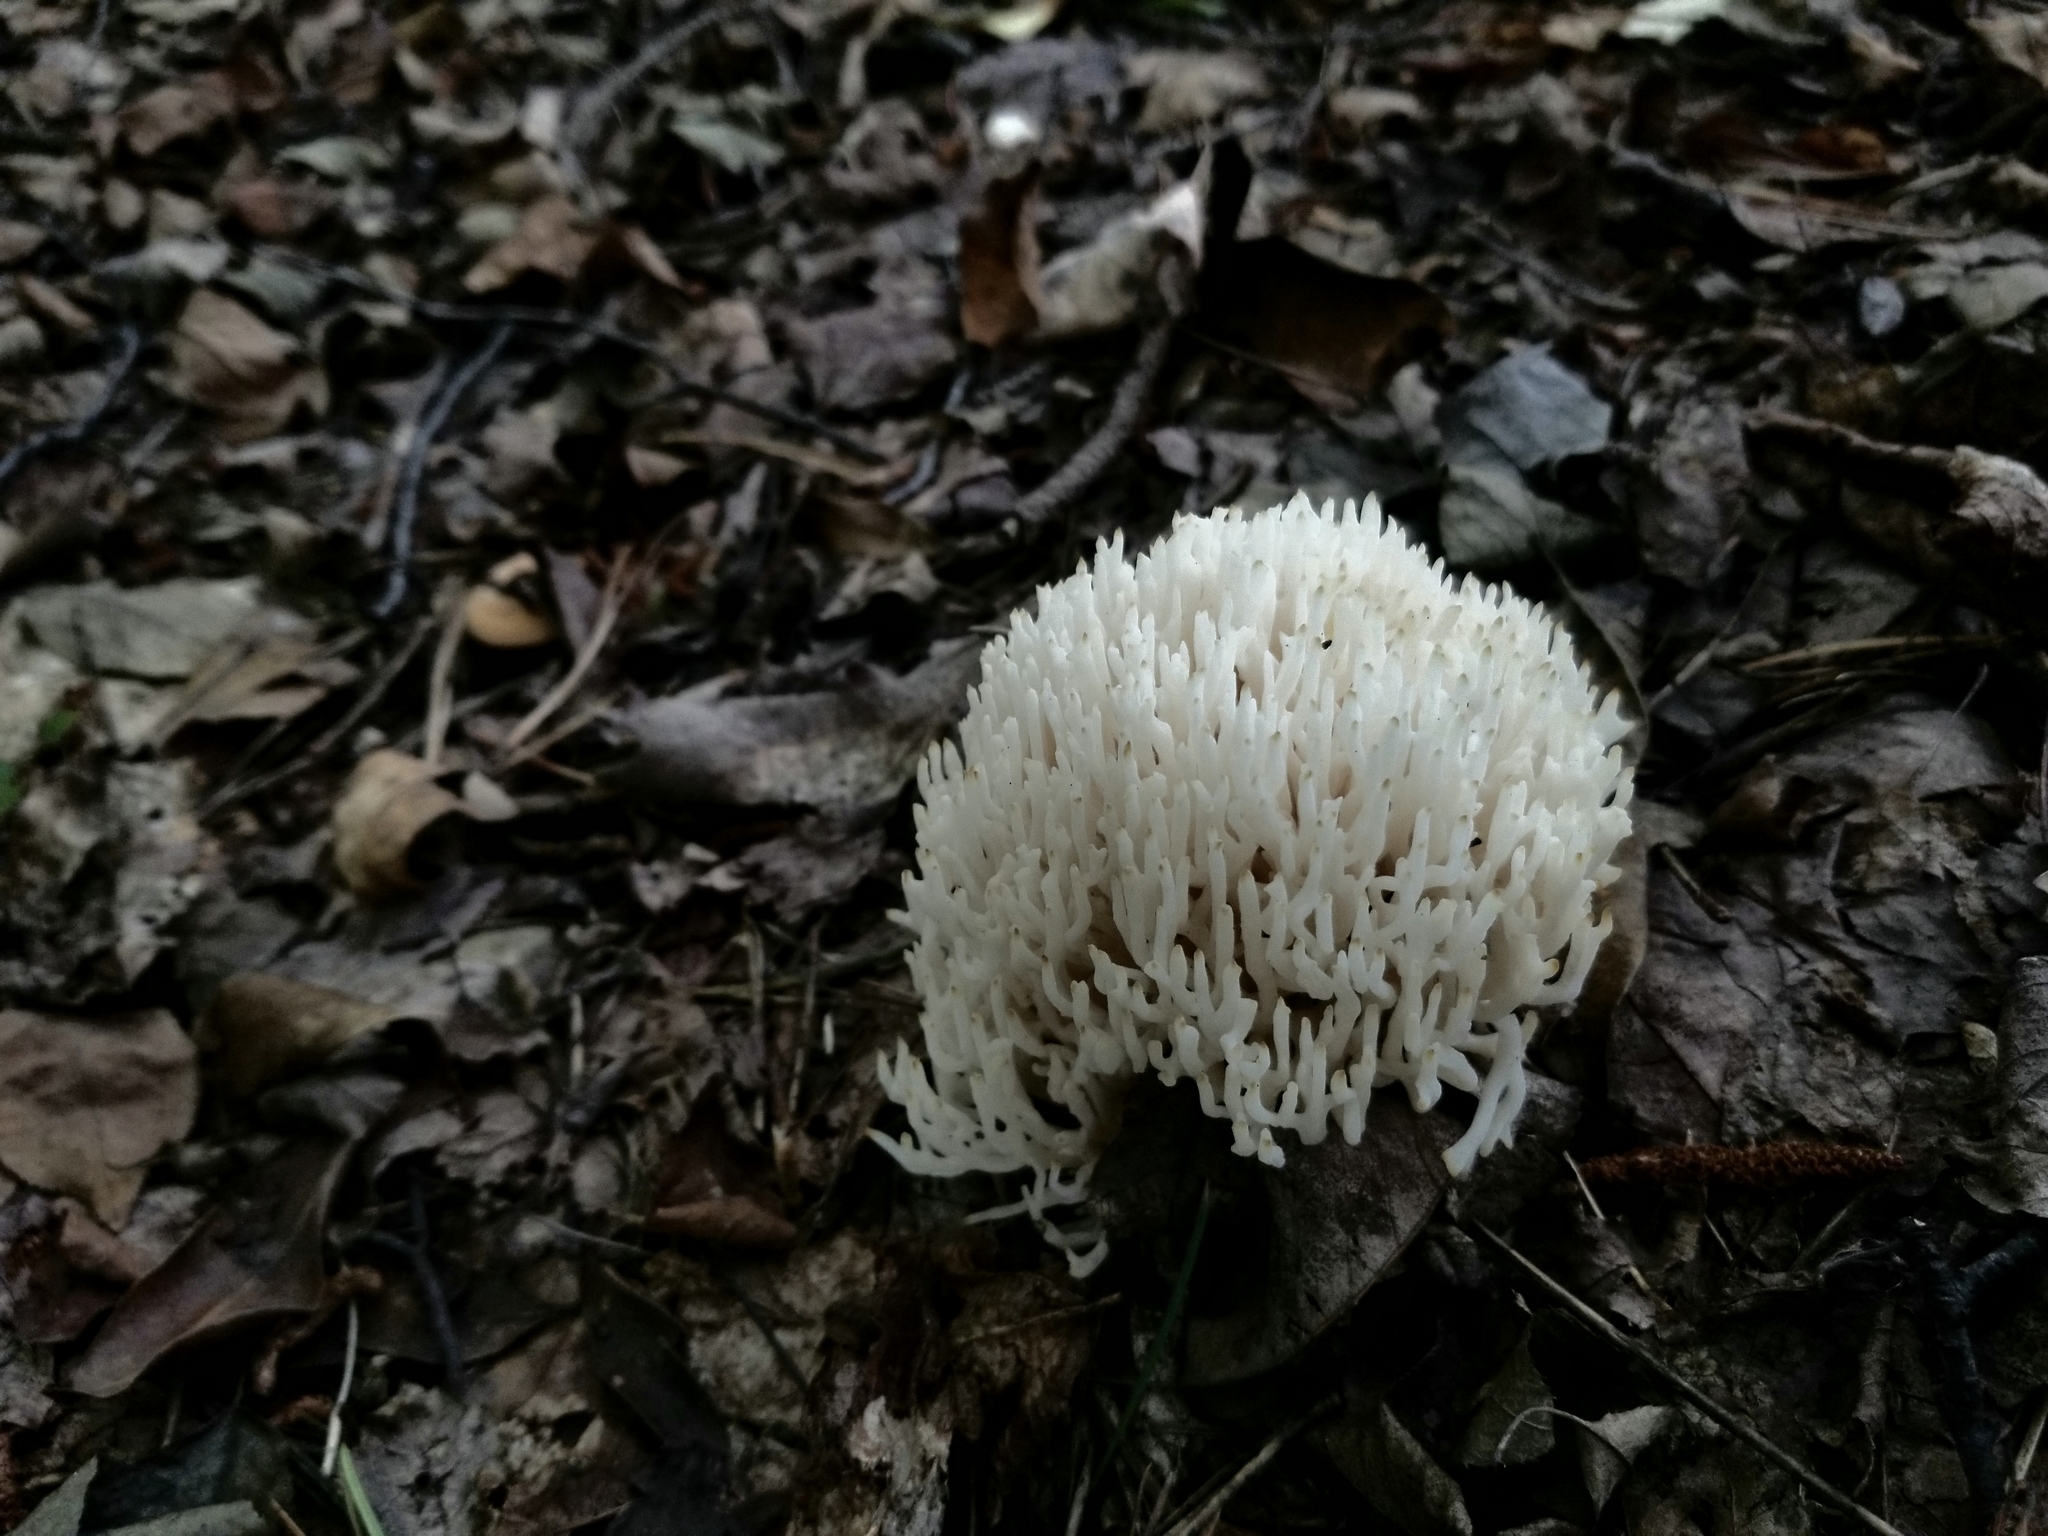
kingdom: Fungi
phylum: Basidiomycota
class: Agaricomycetes
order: Agaricales
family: Clavariaceae
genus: Ramariopsis
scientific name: Ramariopsis kunzei
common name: Ivory coral
